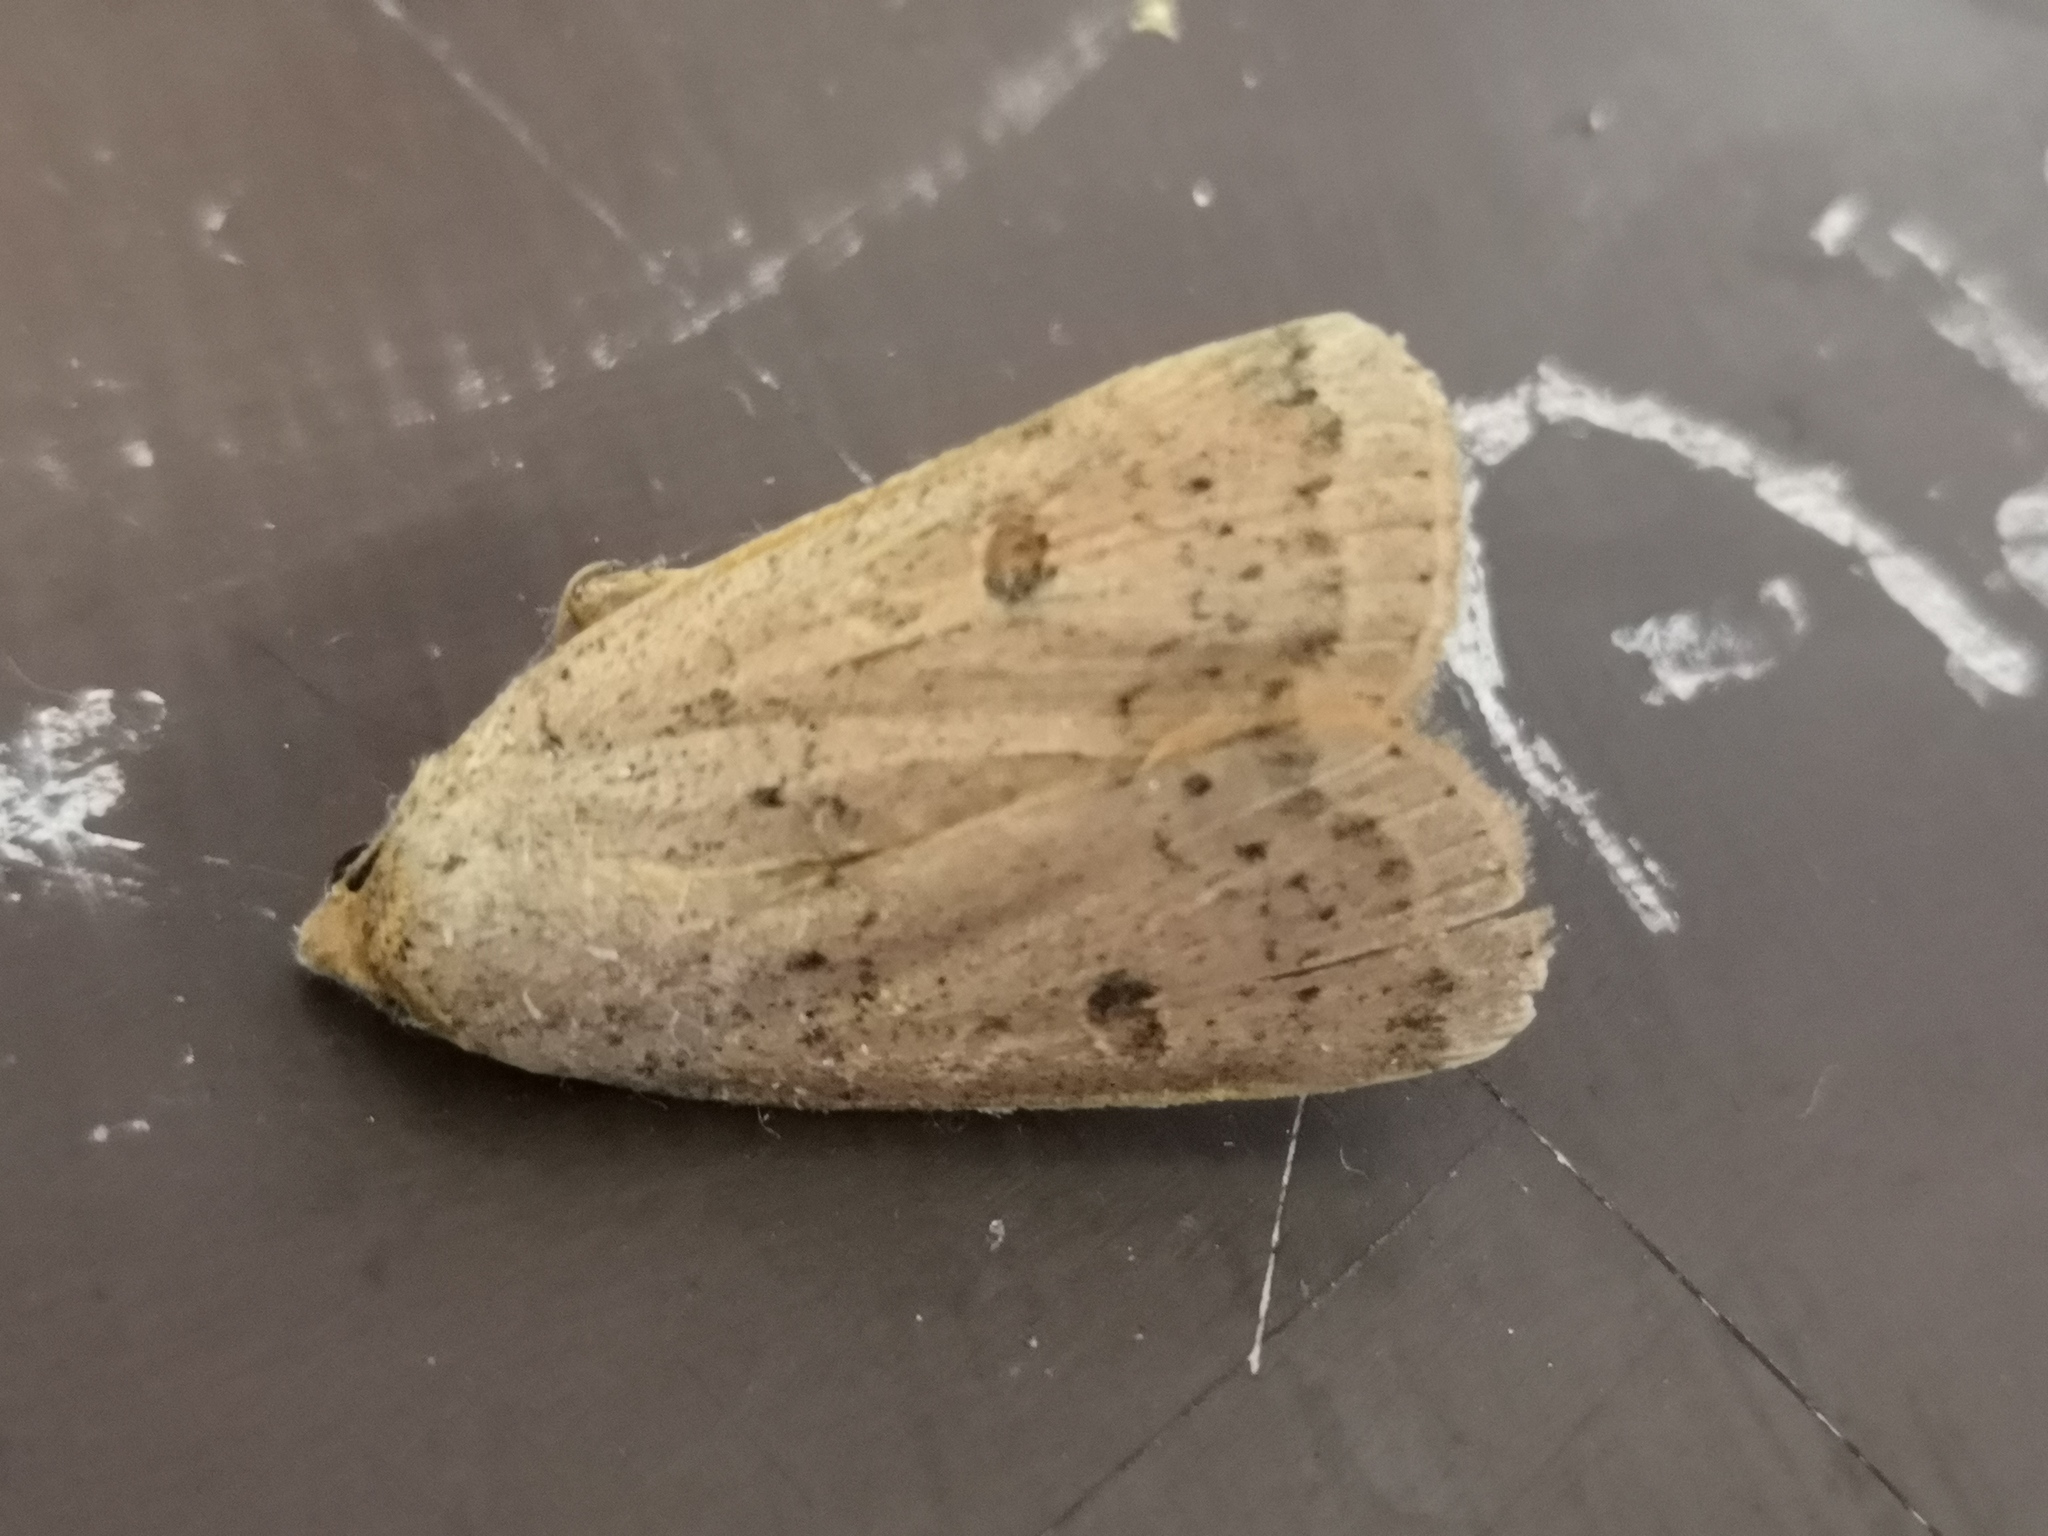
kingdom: Animalia
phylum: Arthropoda
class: Insecta
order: Lepidoptera
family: Noctuidae
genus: Noctua
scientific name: Noctua comes
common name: Lesser yellow underwing
